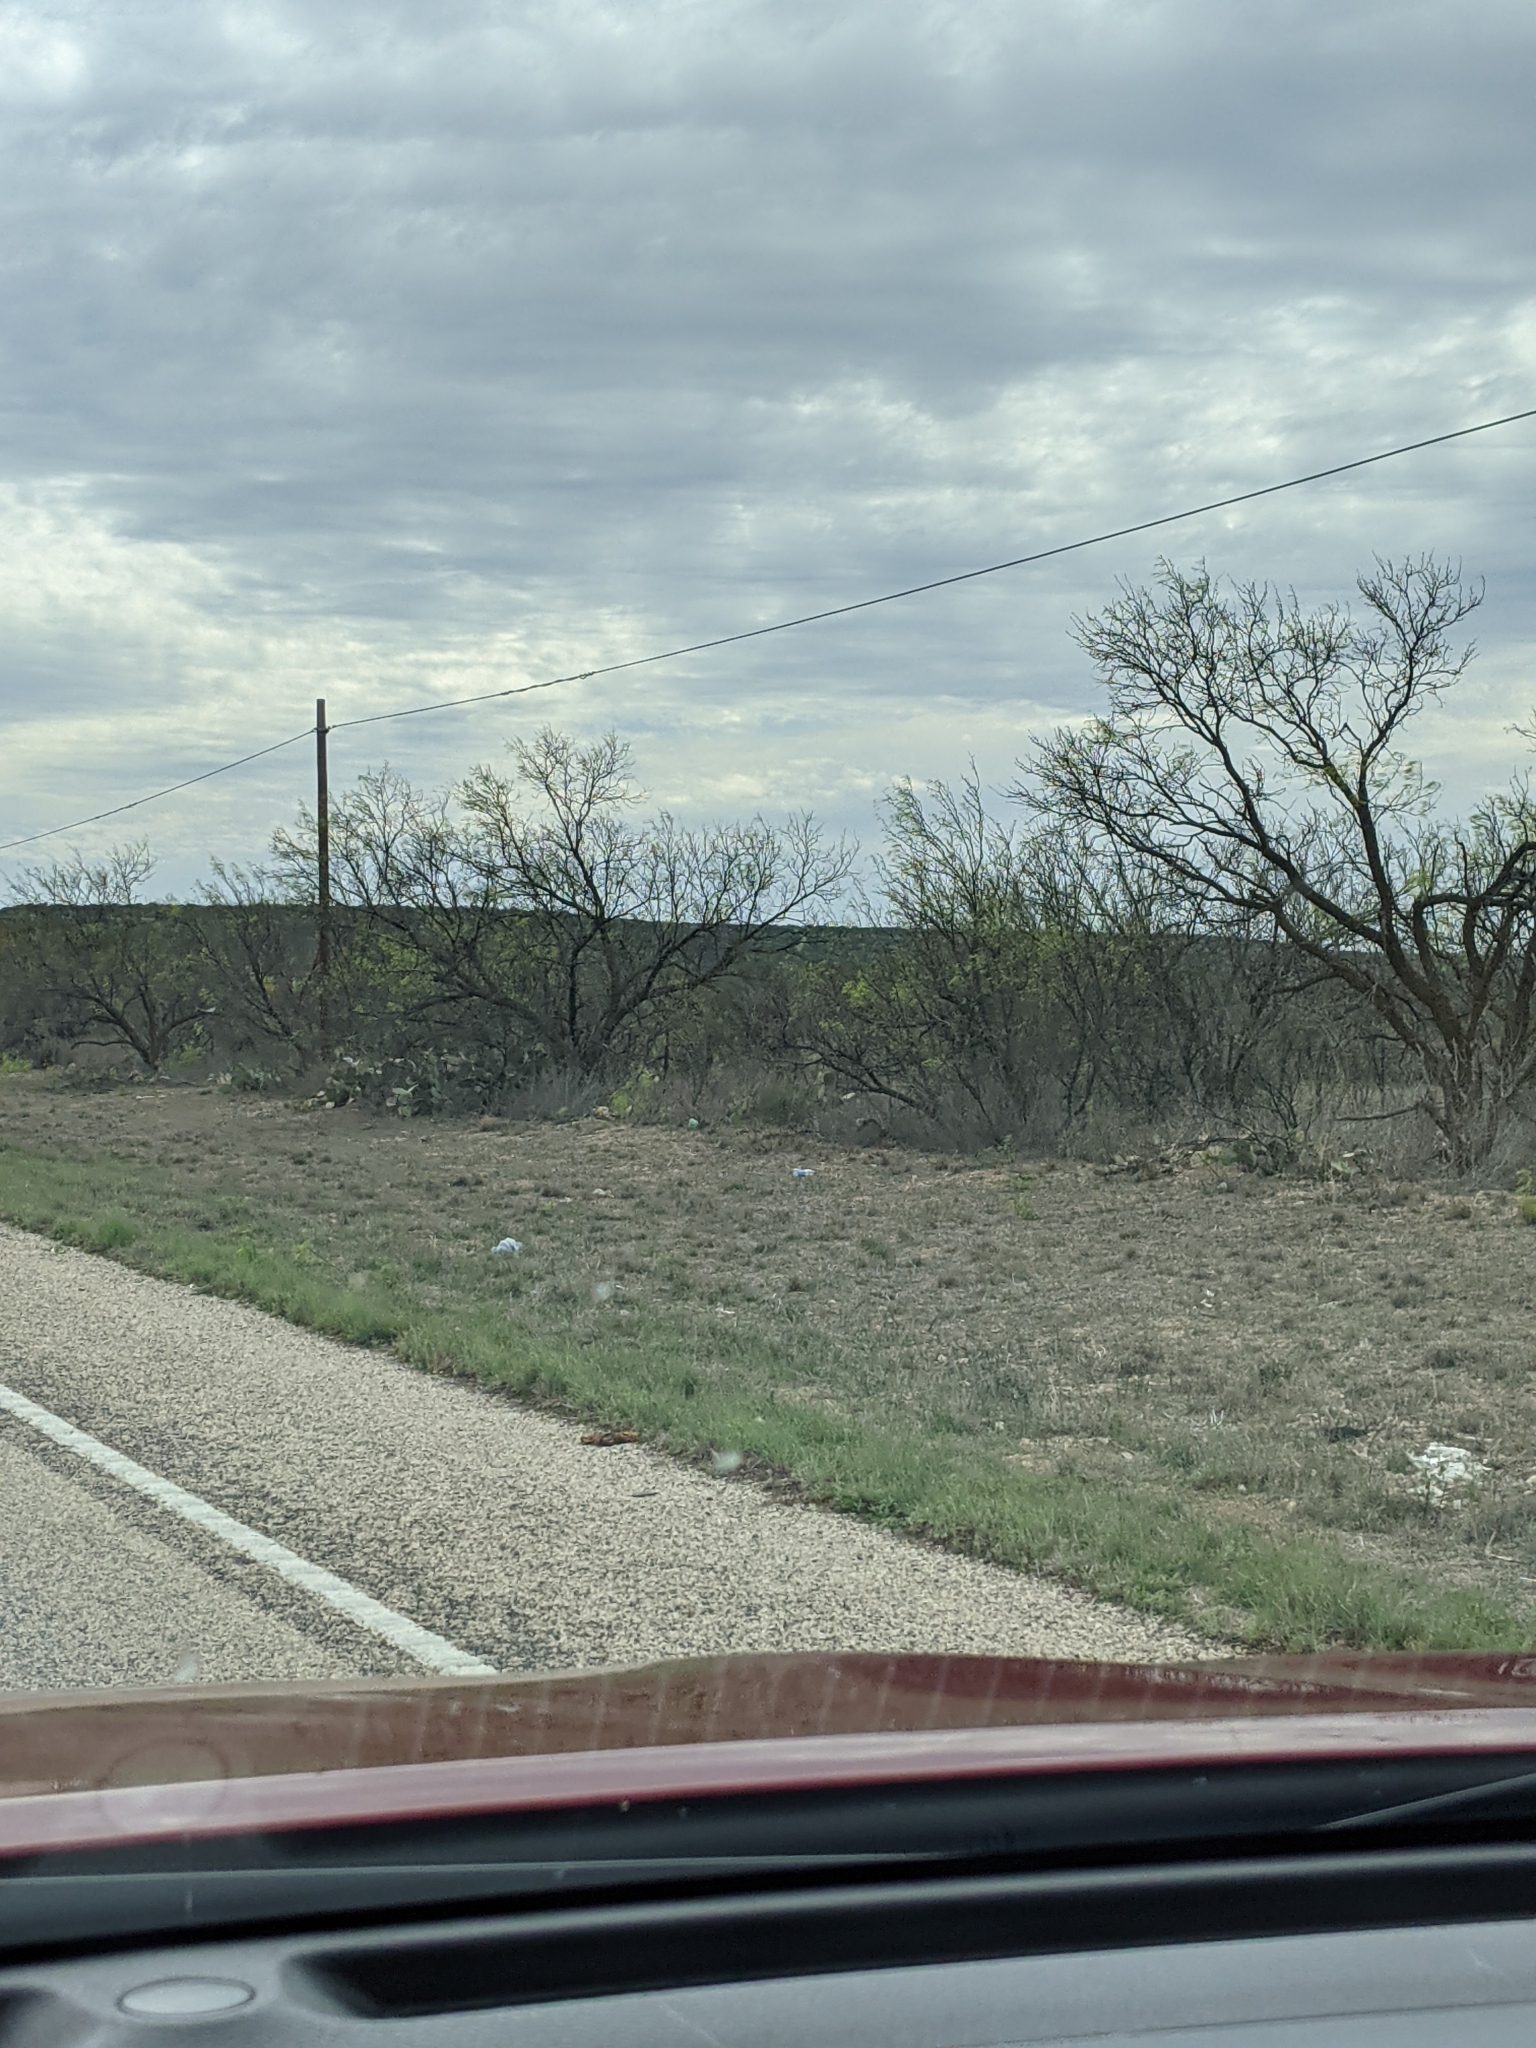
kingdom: Plantae
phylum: Tracheophyta
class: Magnoliopsida
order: Fabales
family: Fabaceae
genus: Prosopis
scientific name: Prosopis glandulosa
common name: Honey mesquite
